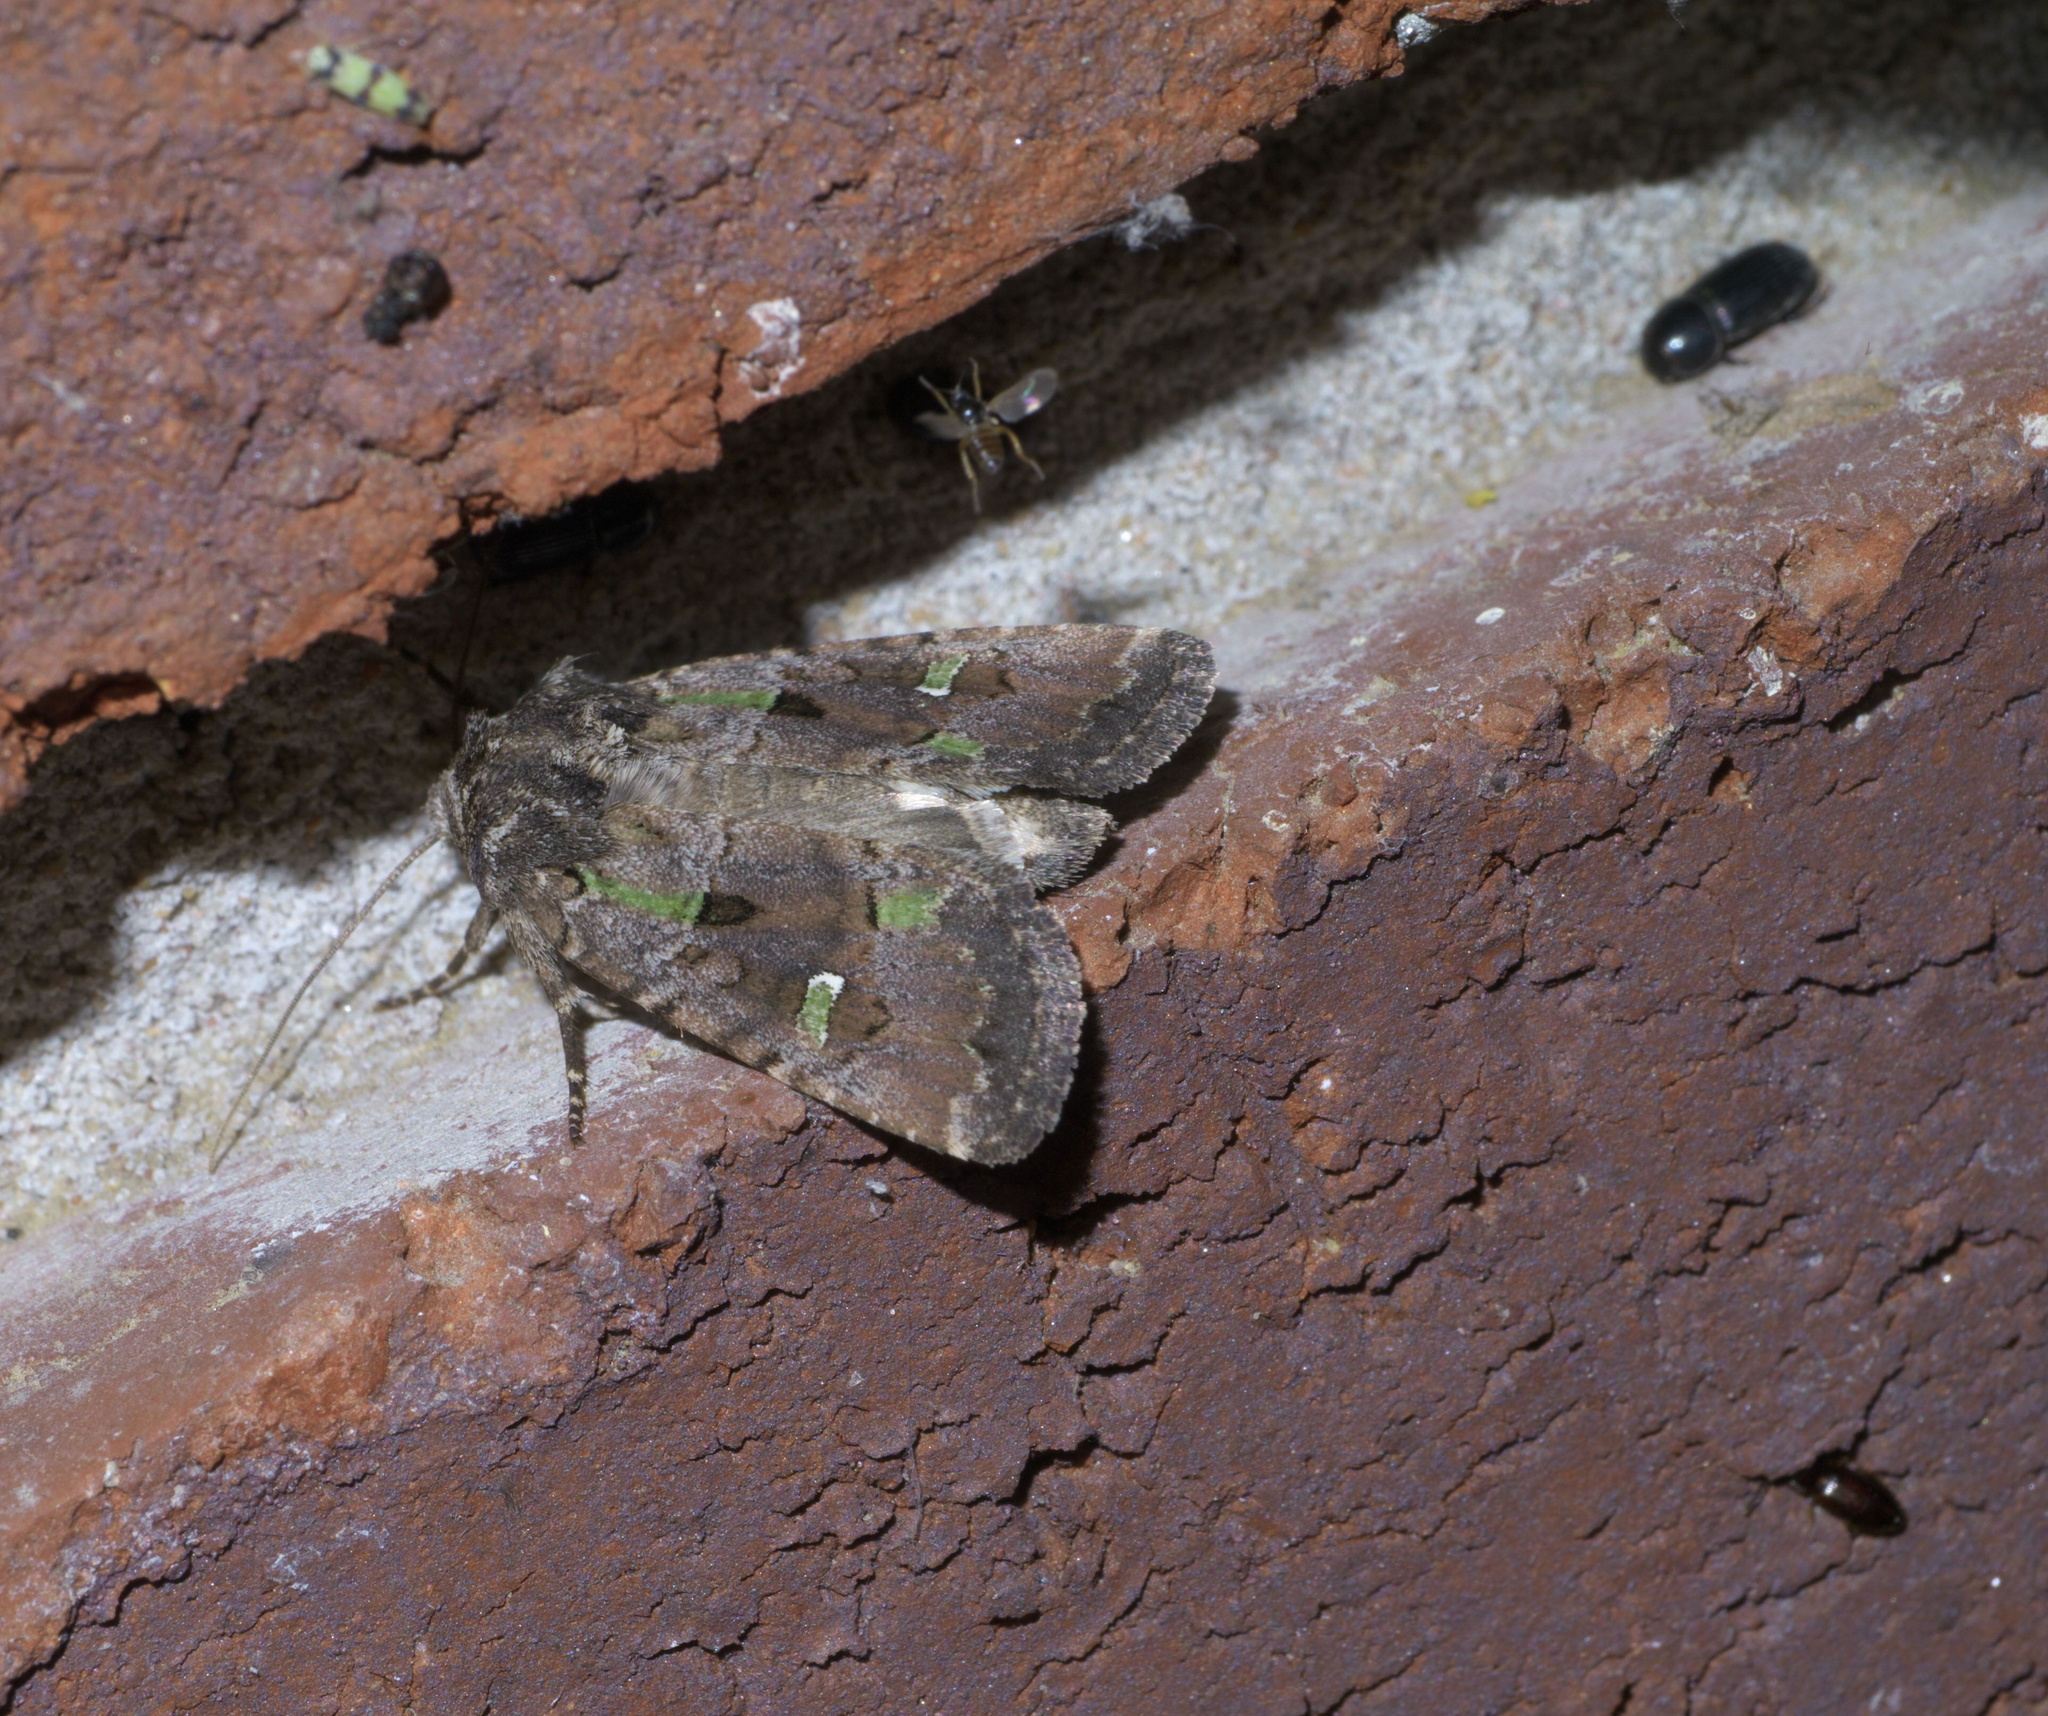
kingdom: Animalia
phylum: Arthropoda
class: Insecta
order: Lepidoptera
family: Noctuidae
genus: Lacinipolia
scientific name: Lacinipolia renigera
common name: Kidney-spotted minor
